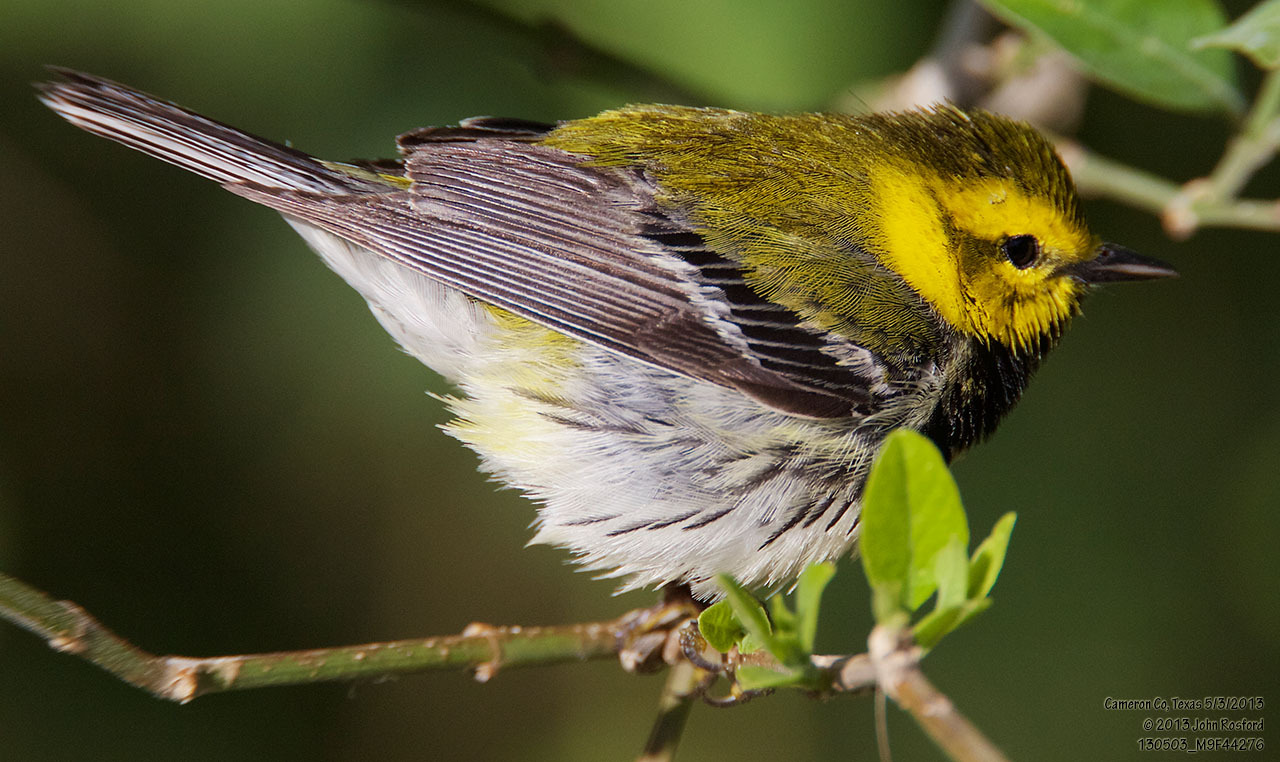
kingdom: Animalia
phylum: Chordata
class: Aves
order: Passeriformes
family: Parulidae
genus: Setophaga
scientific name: Setophaga virens
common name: Black-throated green warbler
